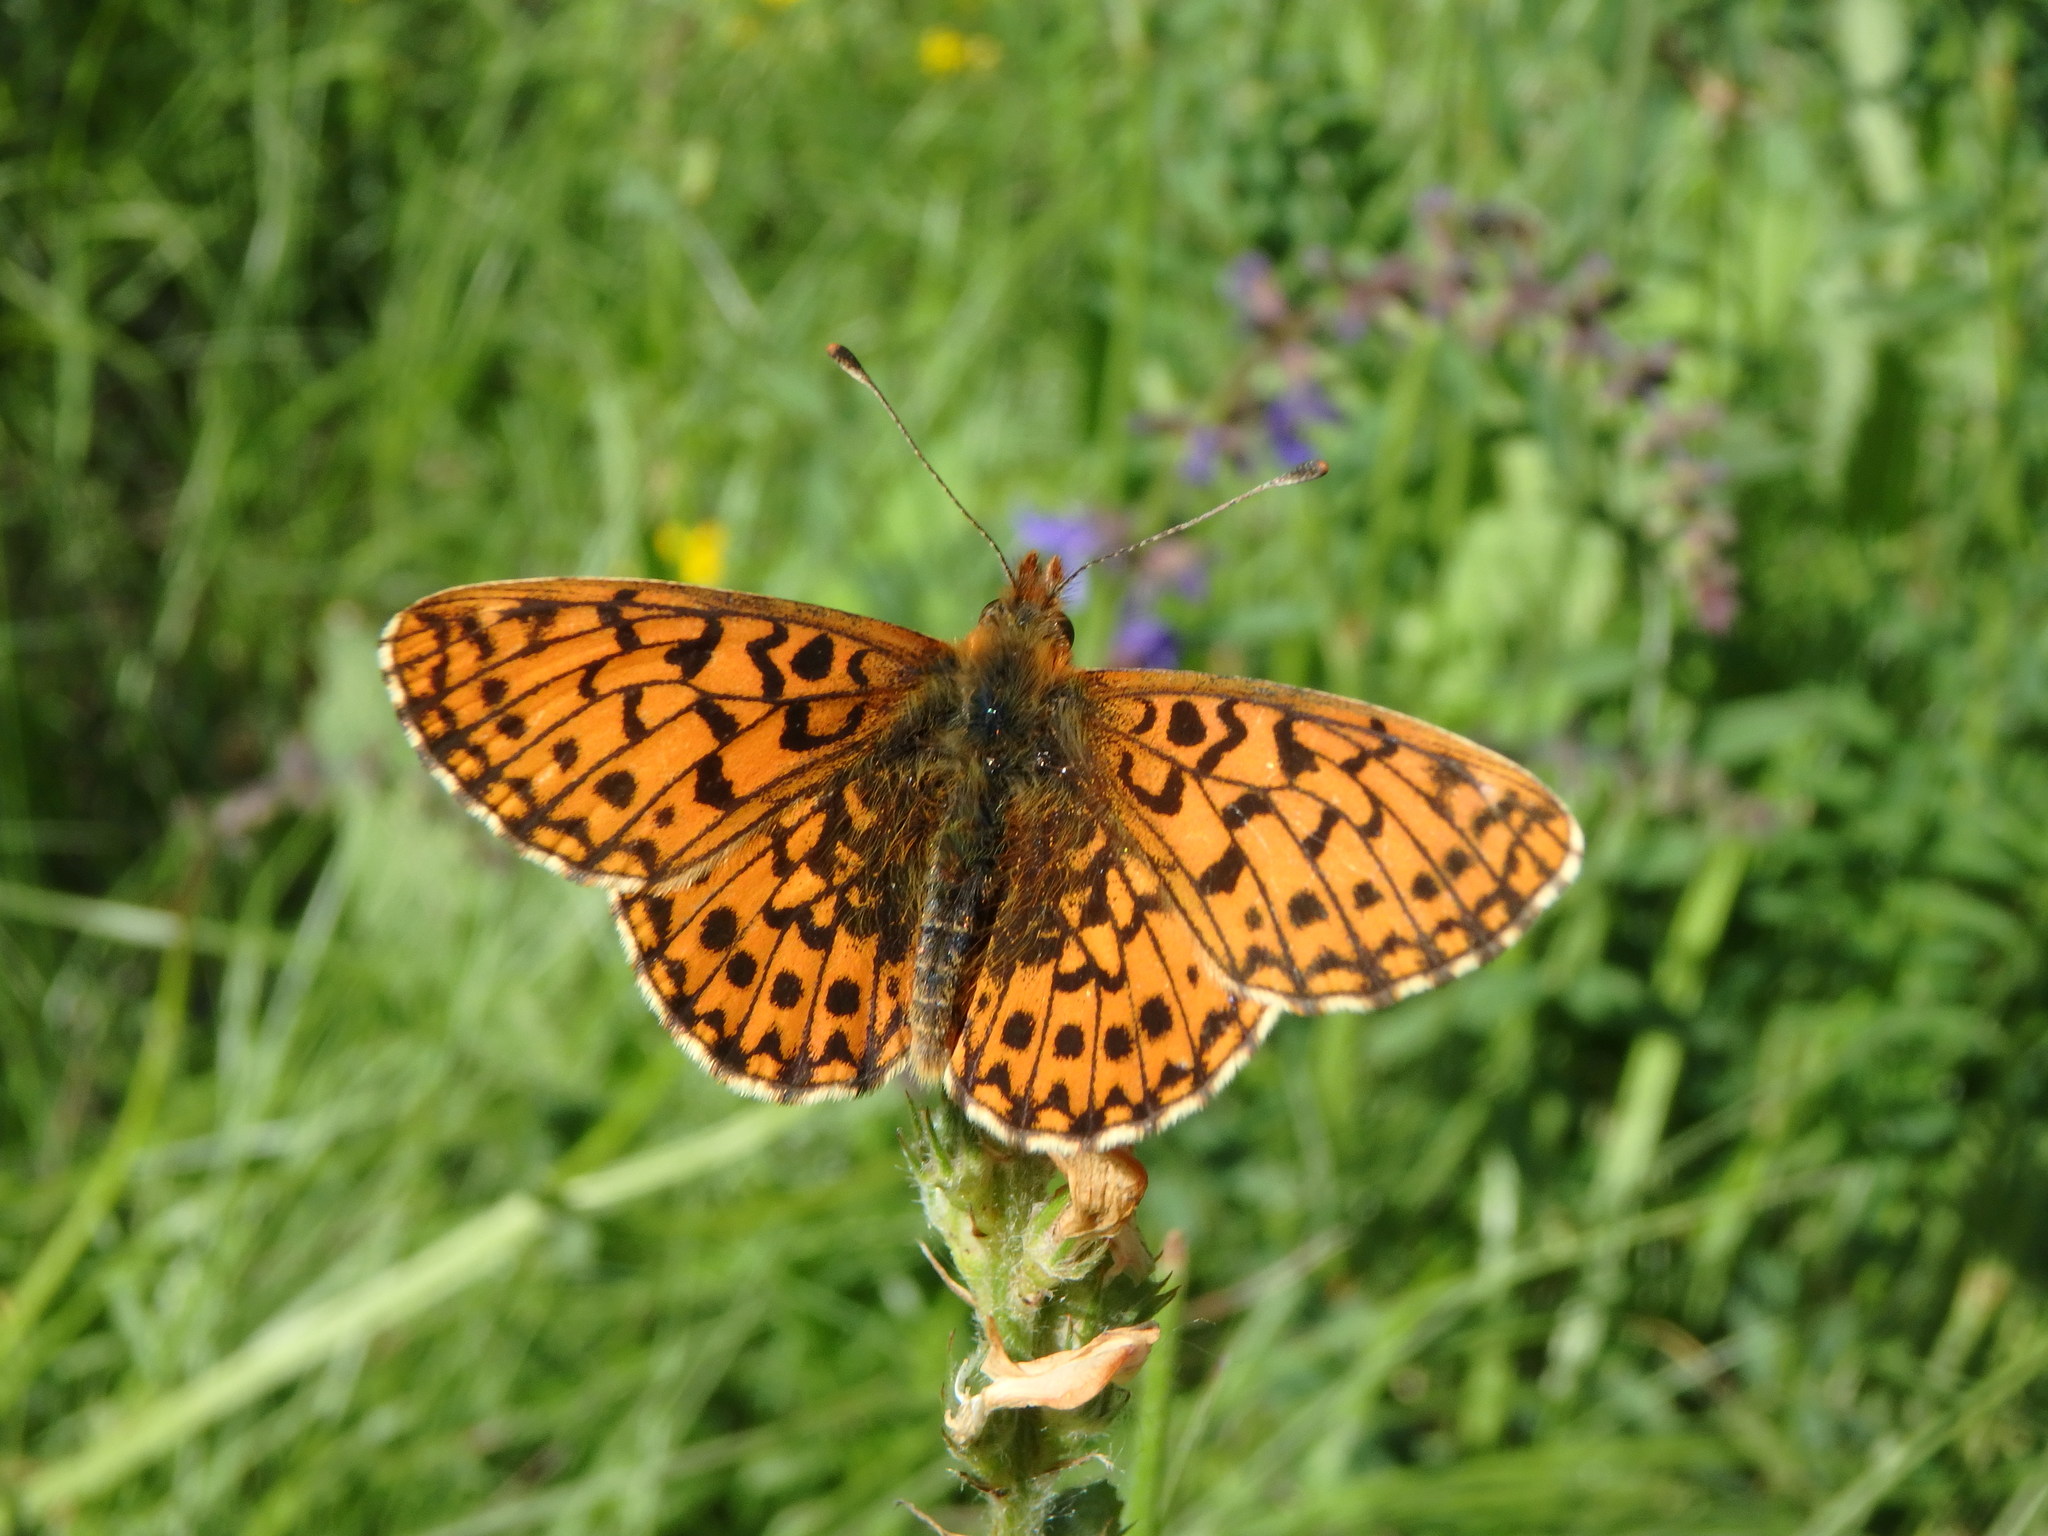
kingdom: Animalia
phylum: Arthropoda
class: Insecta
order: Lepidoptera
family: Nymphalidae
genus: Boloria
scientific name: Boloria dia
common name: Weaver's fritillary
